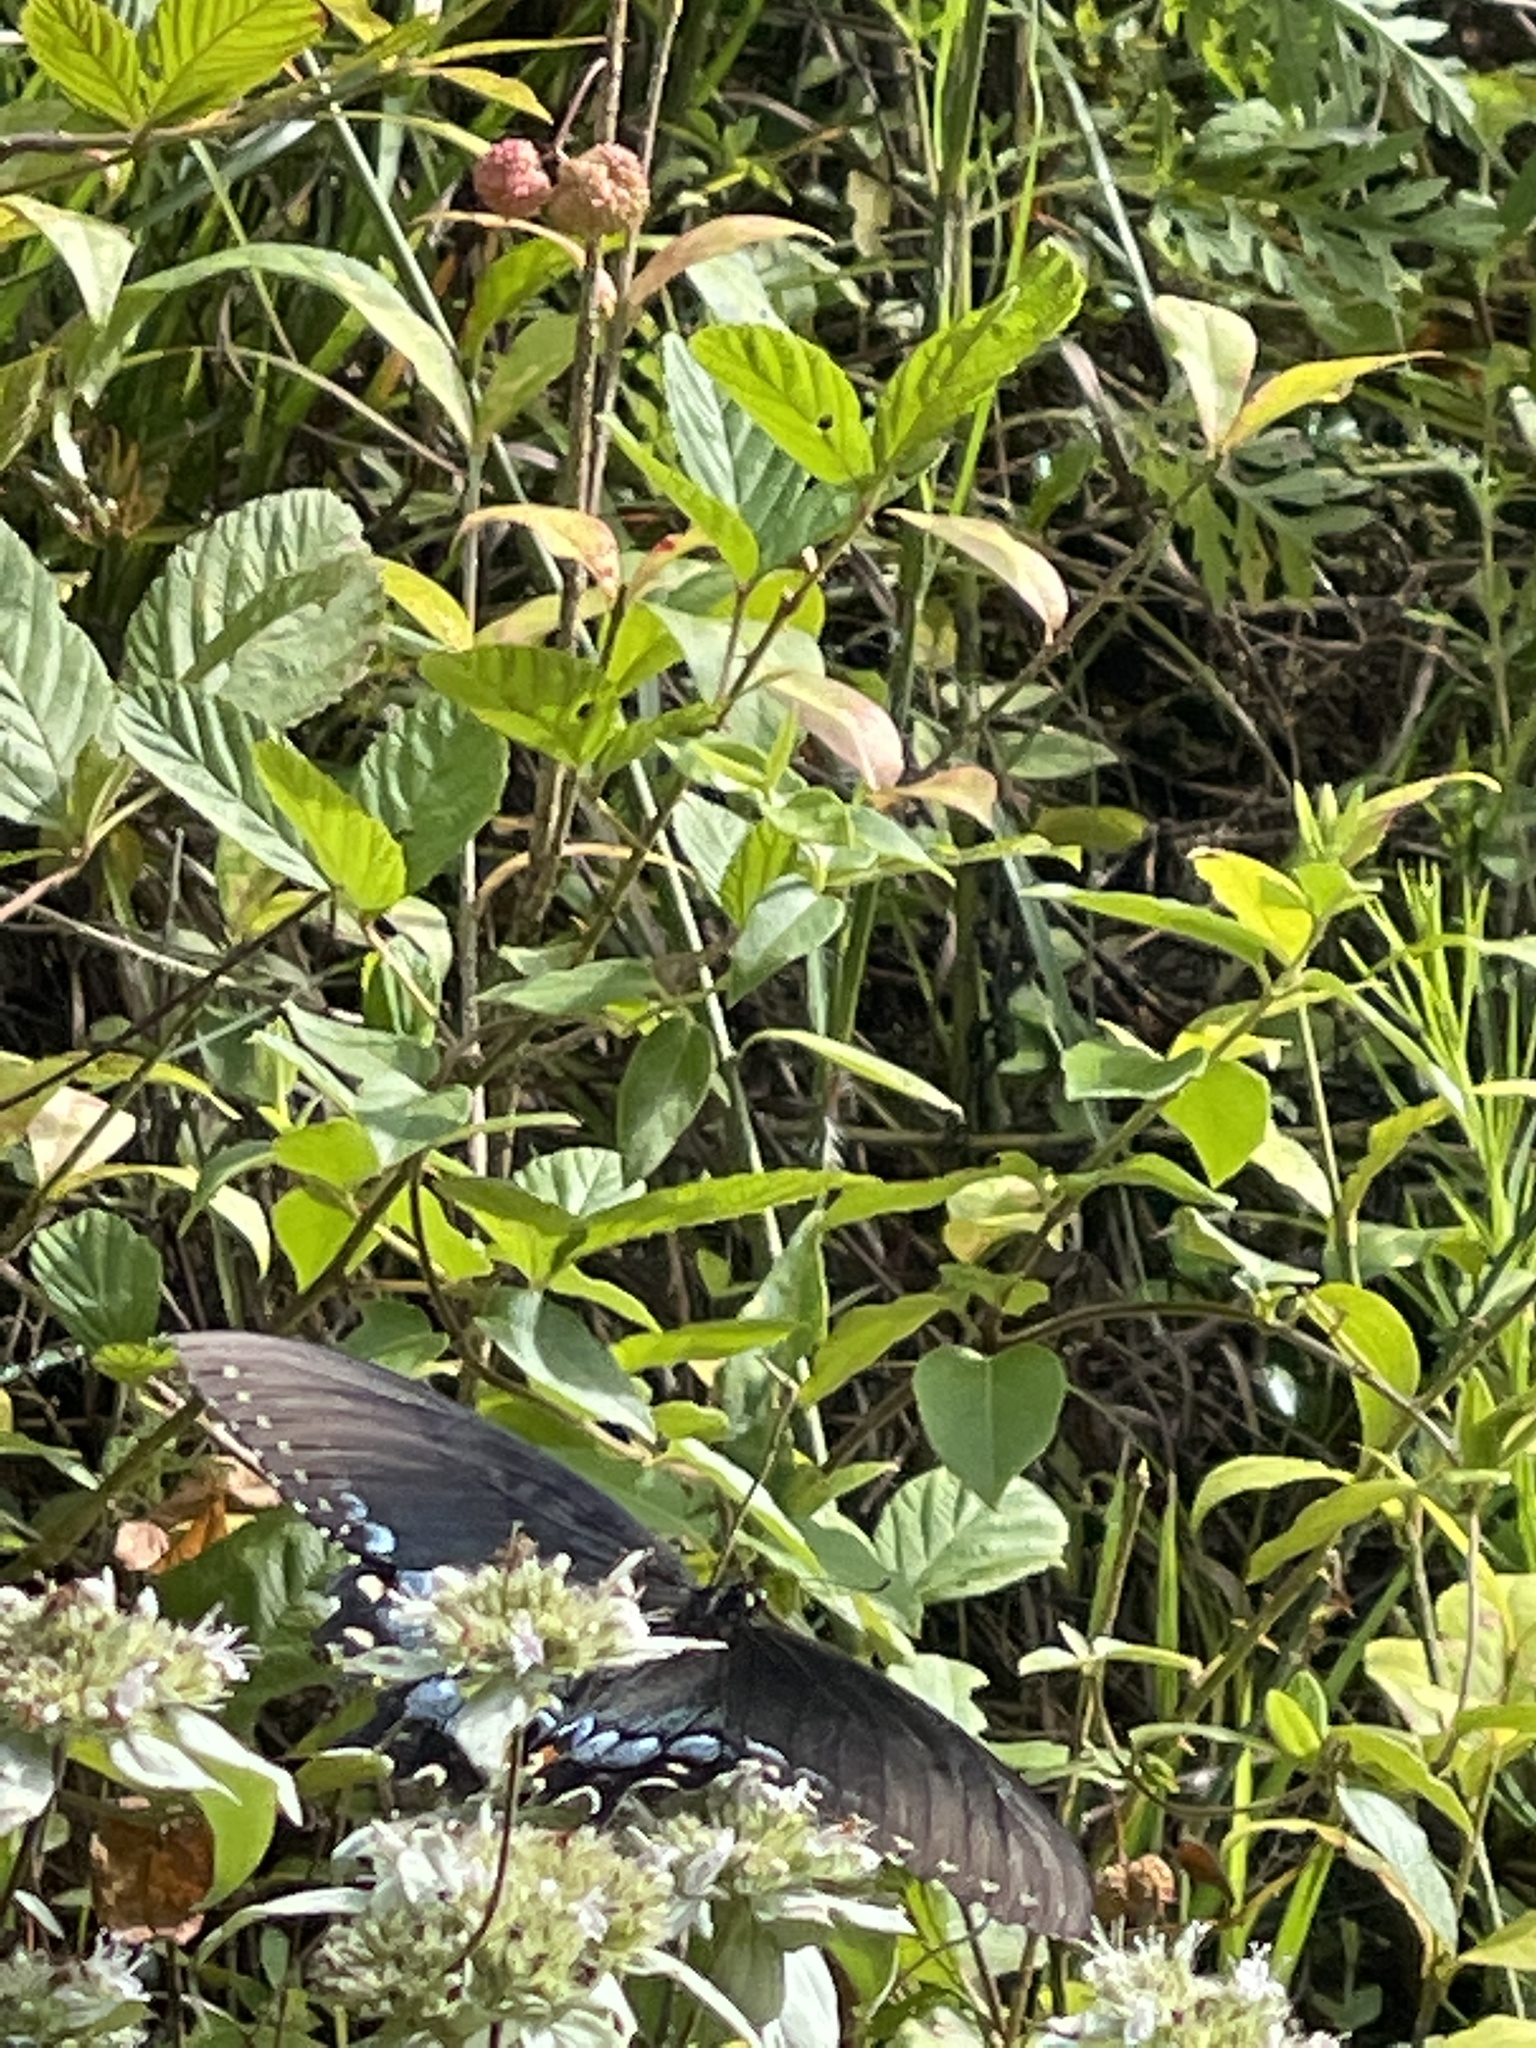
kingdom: Animalia
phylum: Arthropoda
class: Insecta
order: Lepidoptera
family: Papilionidae
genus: Papilio
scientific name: Papilio glaucus
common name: Tiger swallowtail
